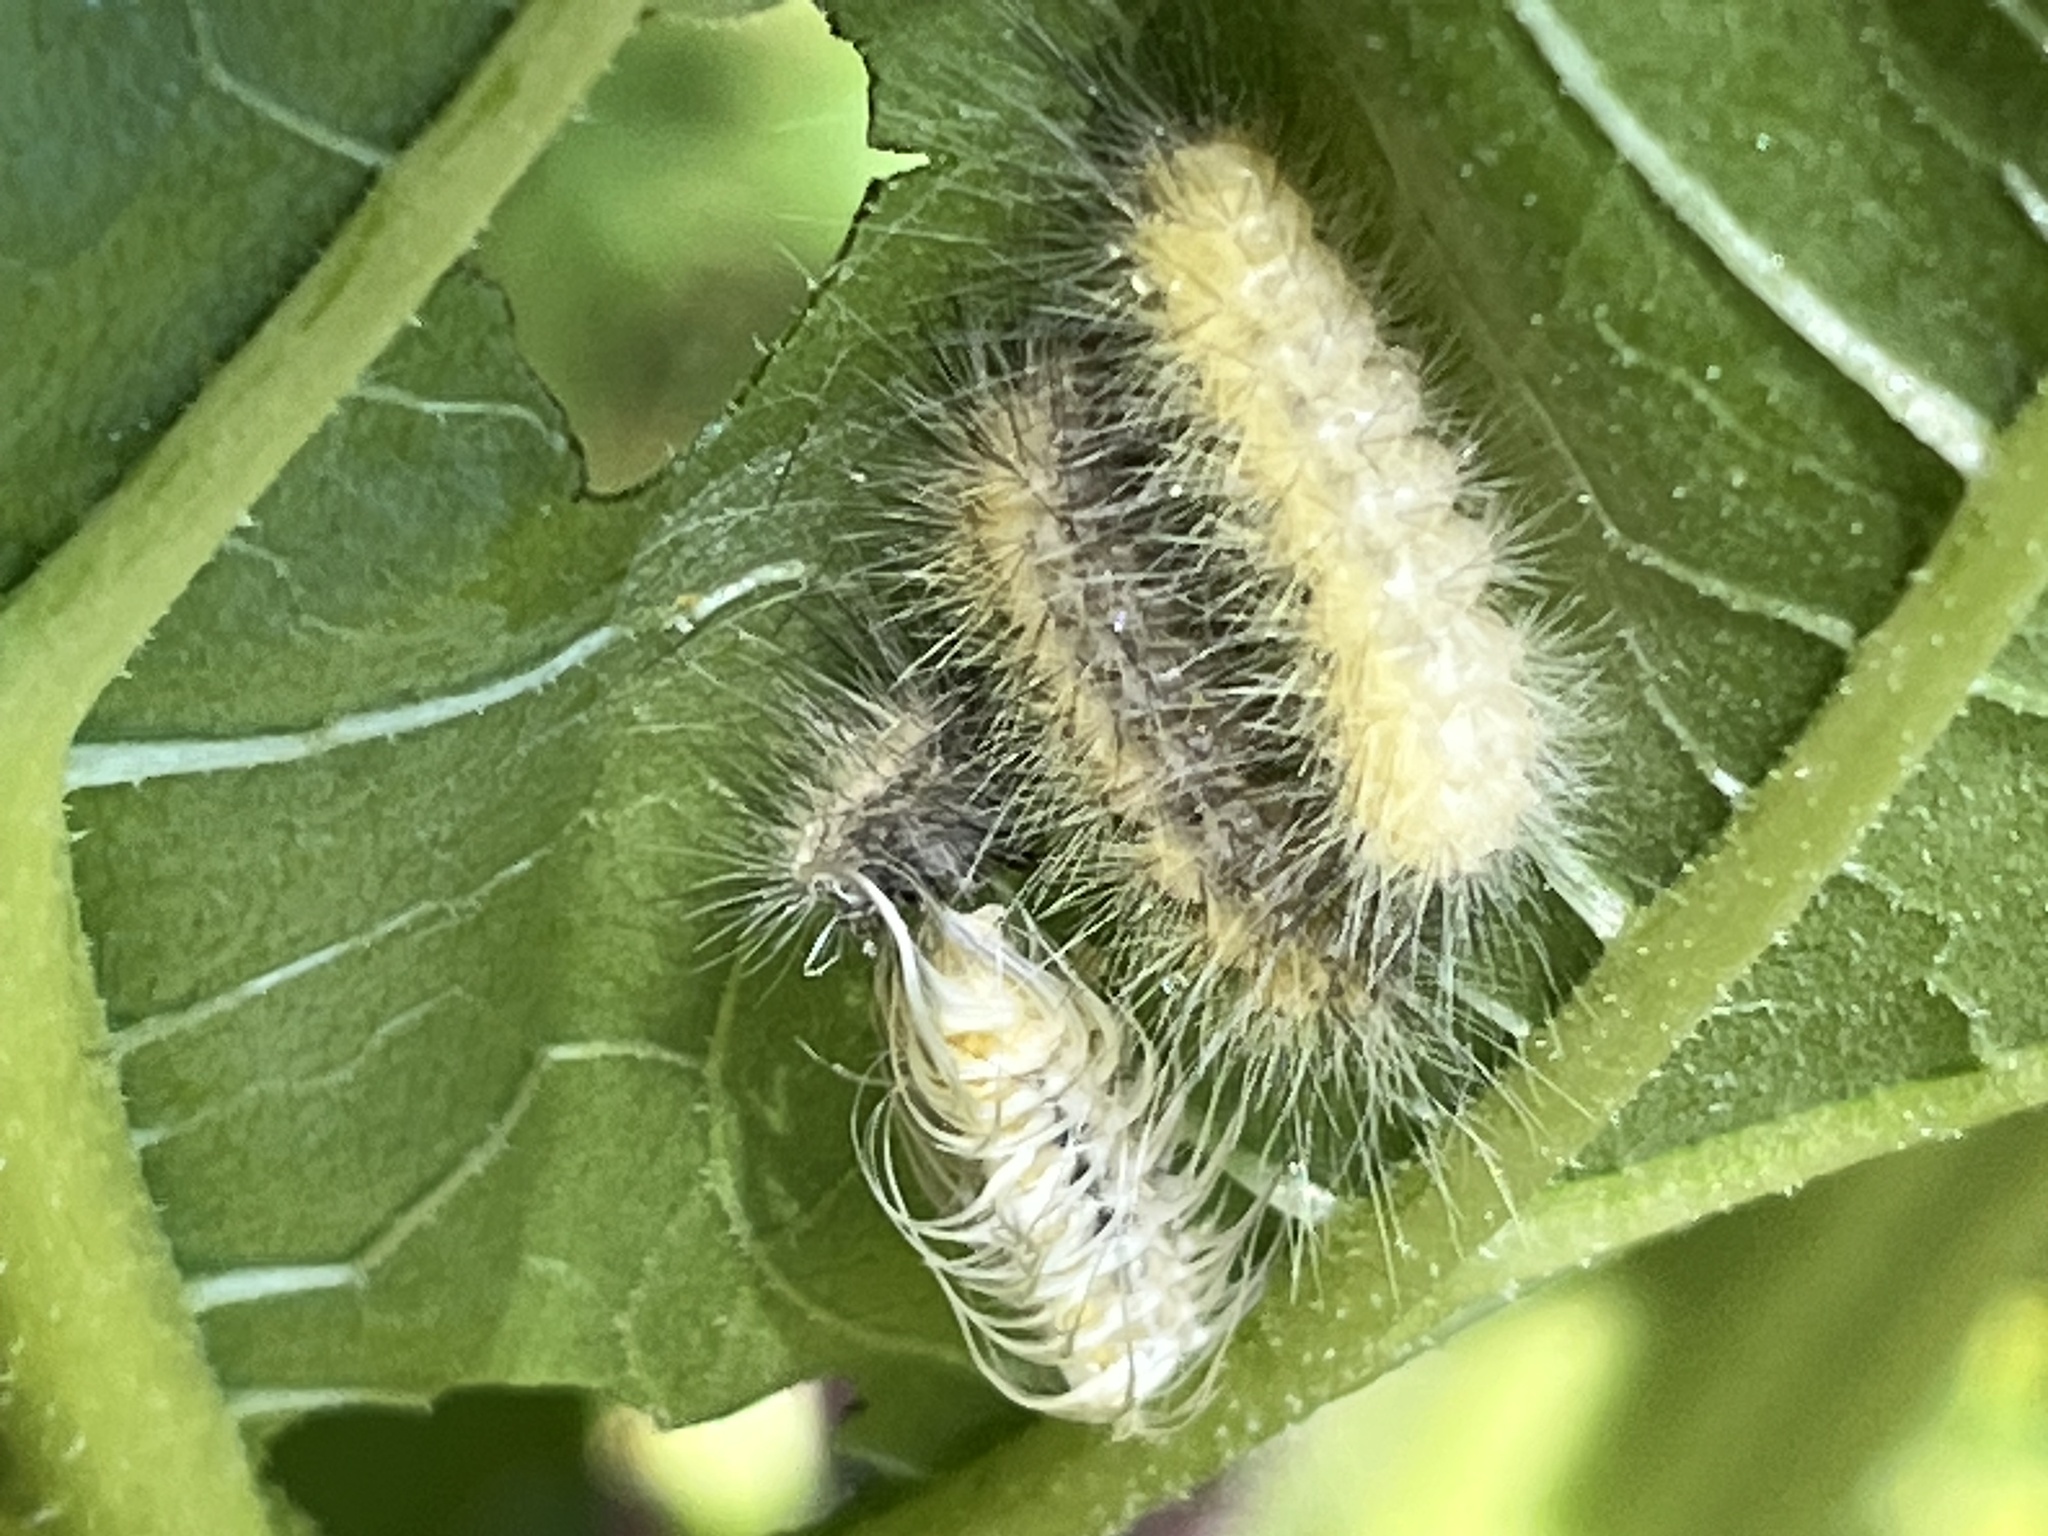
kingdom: Animalia
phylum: Arthropoda
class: Insecta
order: Lepidoptera
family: Erebidae
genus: Spilosoma
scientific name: Spilosoma virginica
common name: Virginia tiger moth
